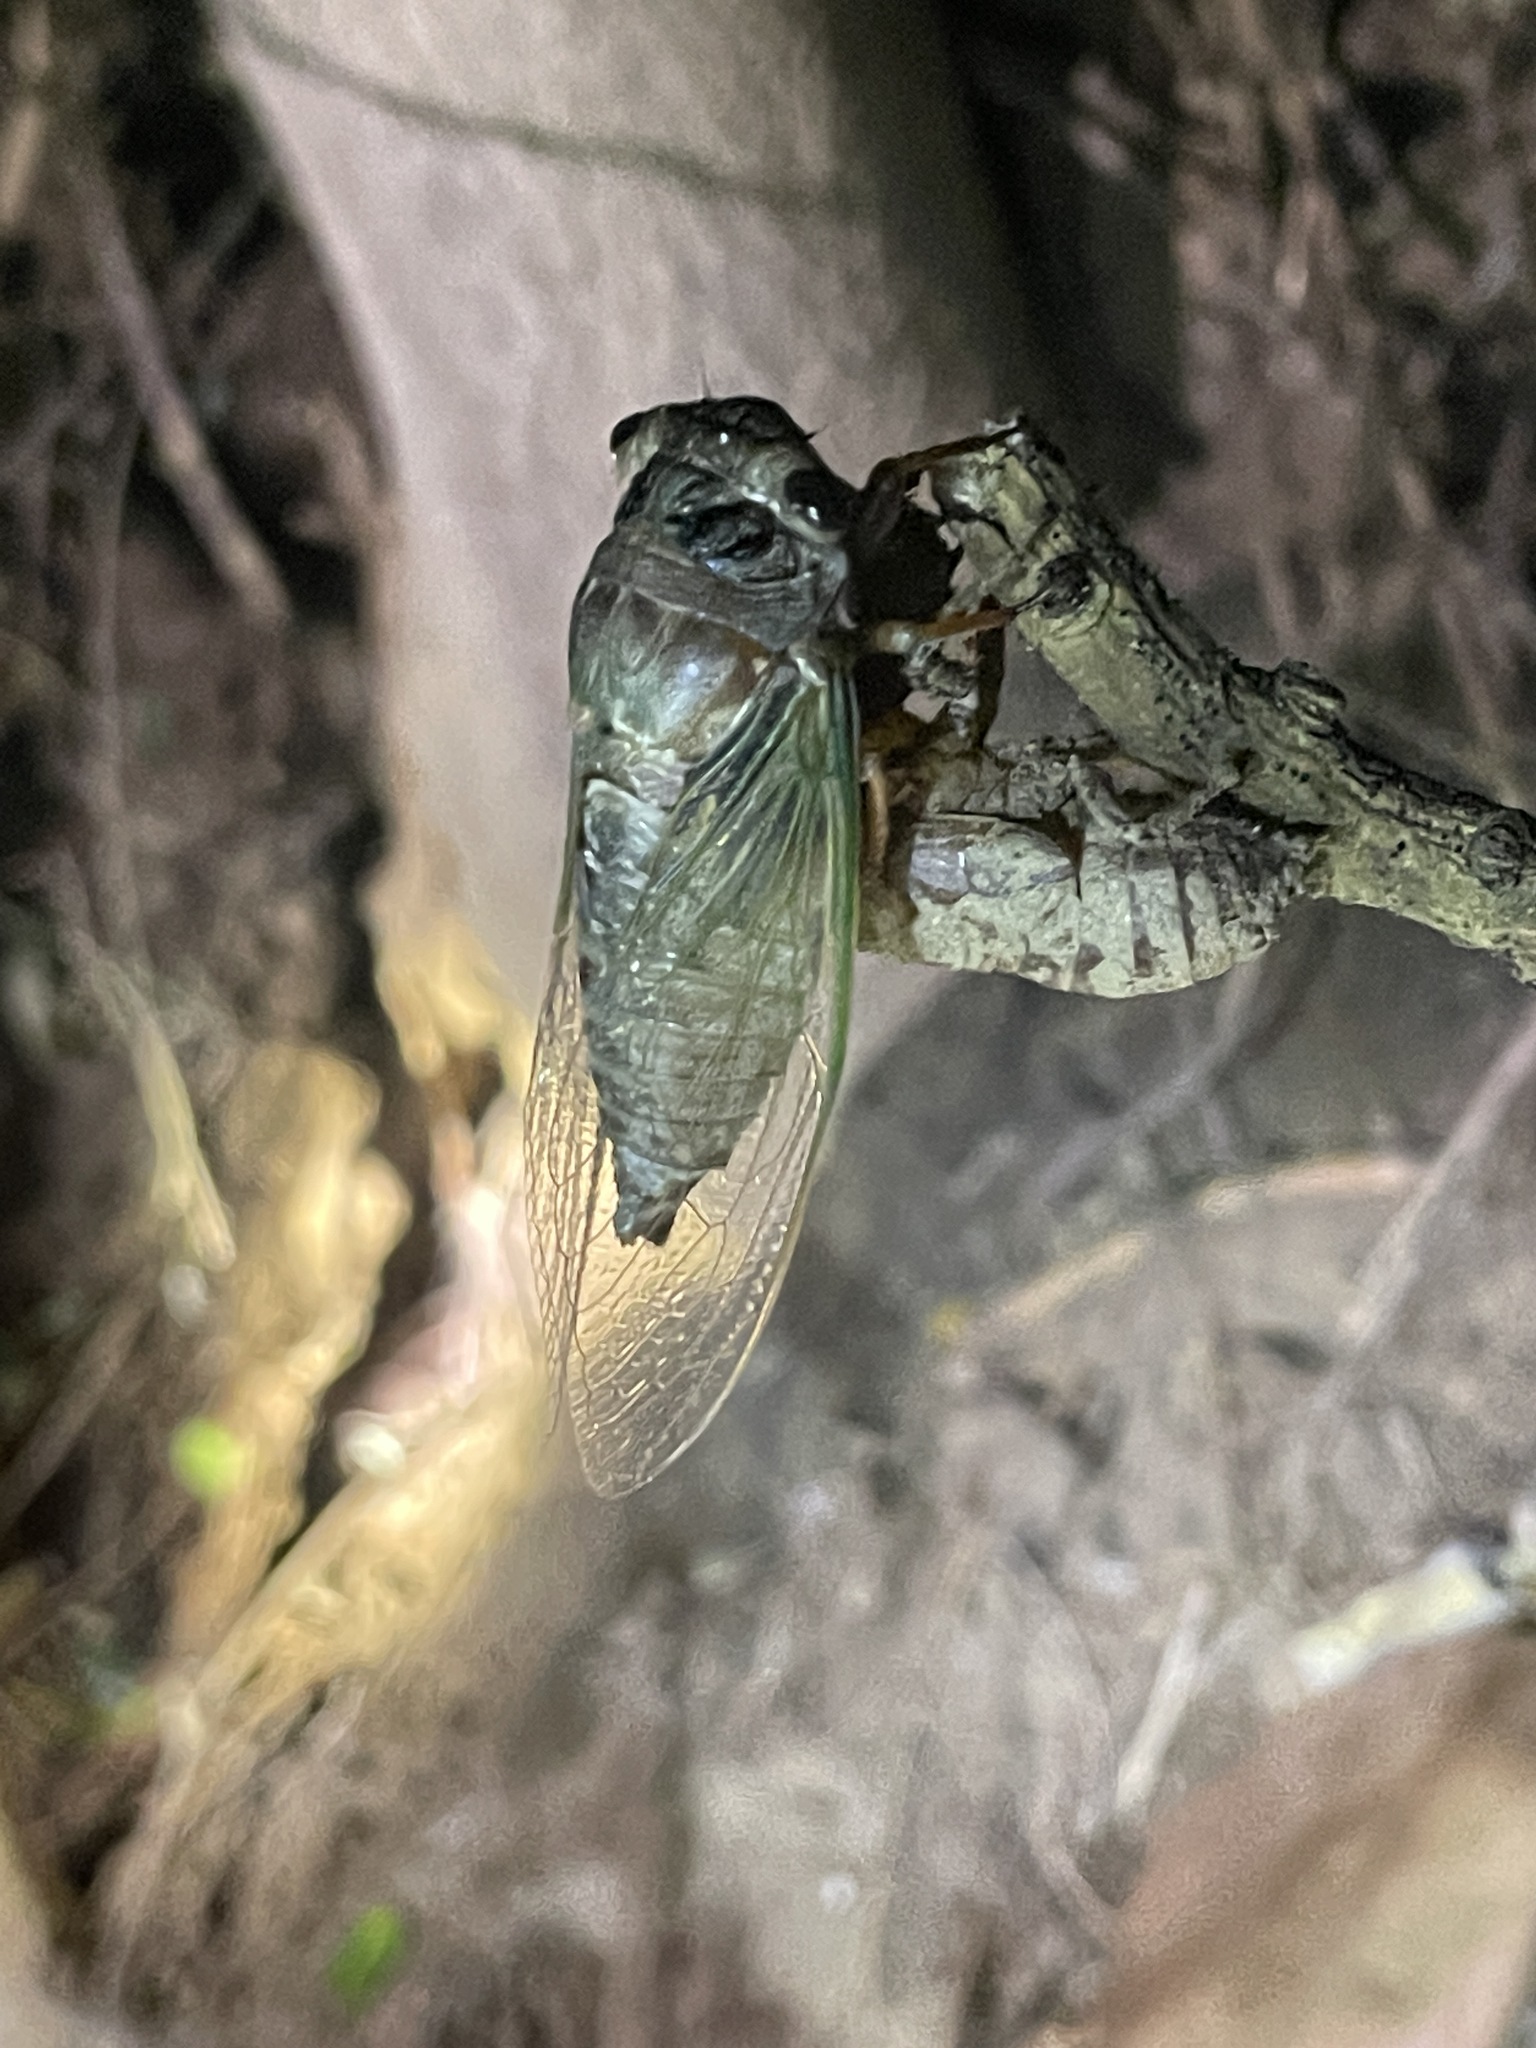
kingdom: Animalia
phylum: Arthropoda
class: Insecta
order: Hemiptera
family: Cicadidae
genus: Cryptotympana
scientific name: Cryptotympana takasagona
